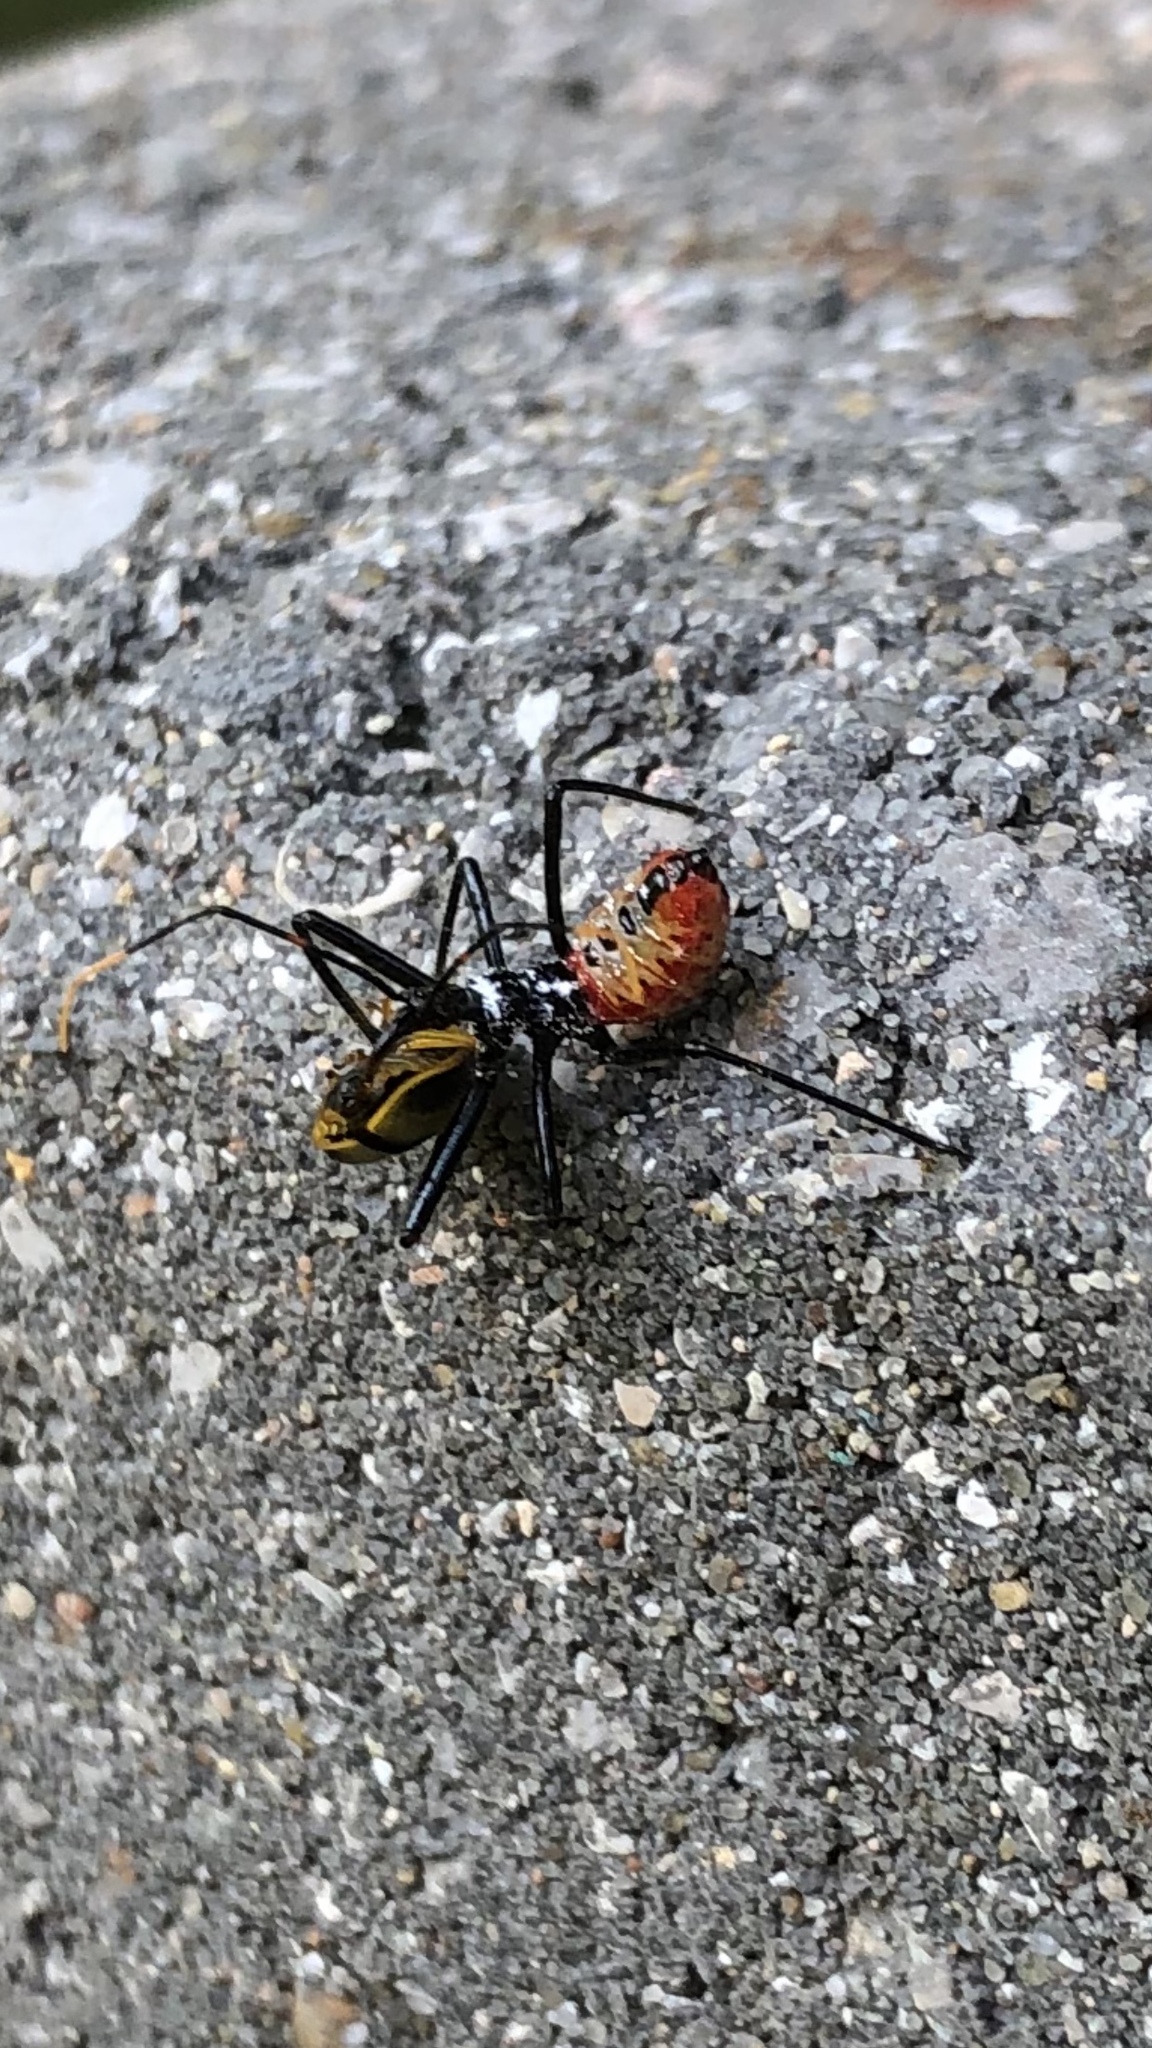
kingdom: Animalia
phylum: Arthropoda
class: Insecta
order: Hemiptera
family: Reduviidae
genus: Arilus
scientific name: Arilus cristatus
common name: North american wheel bug
